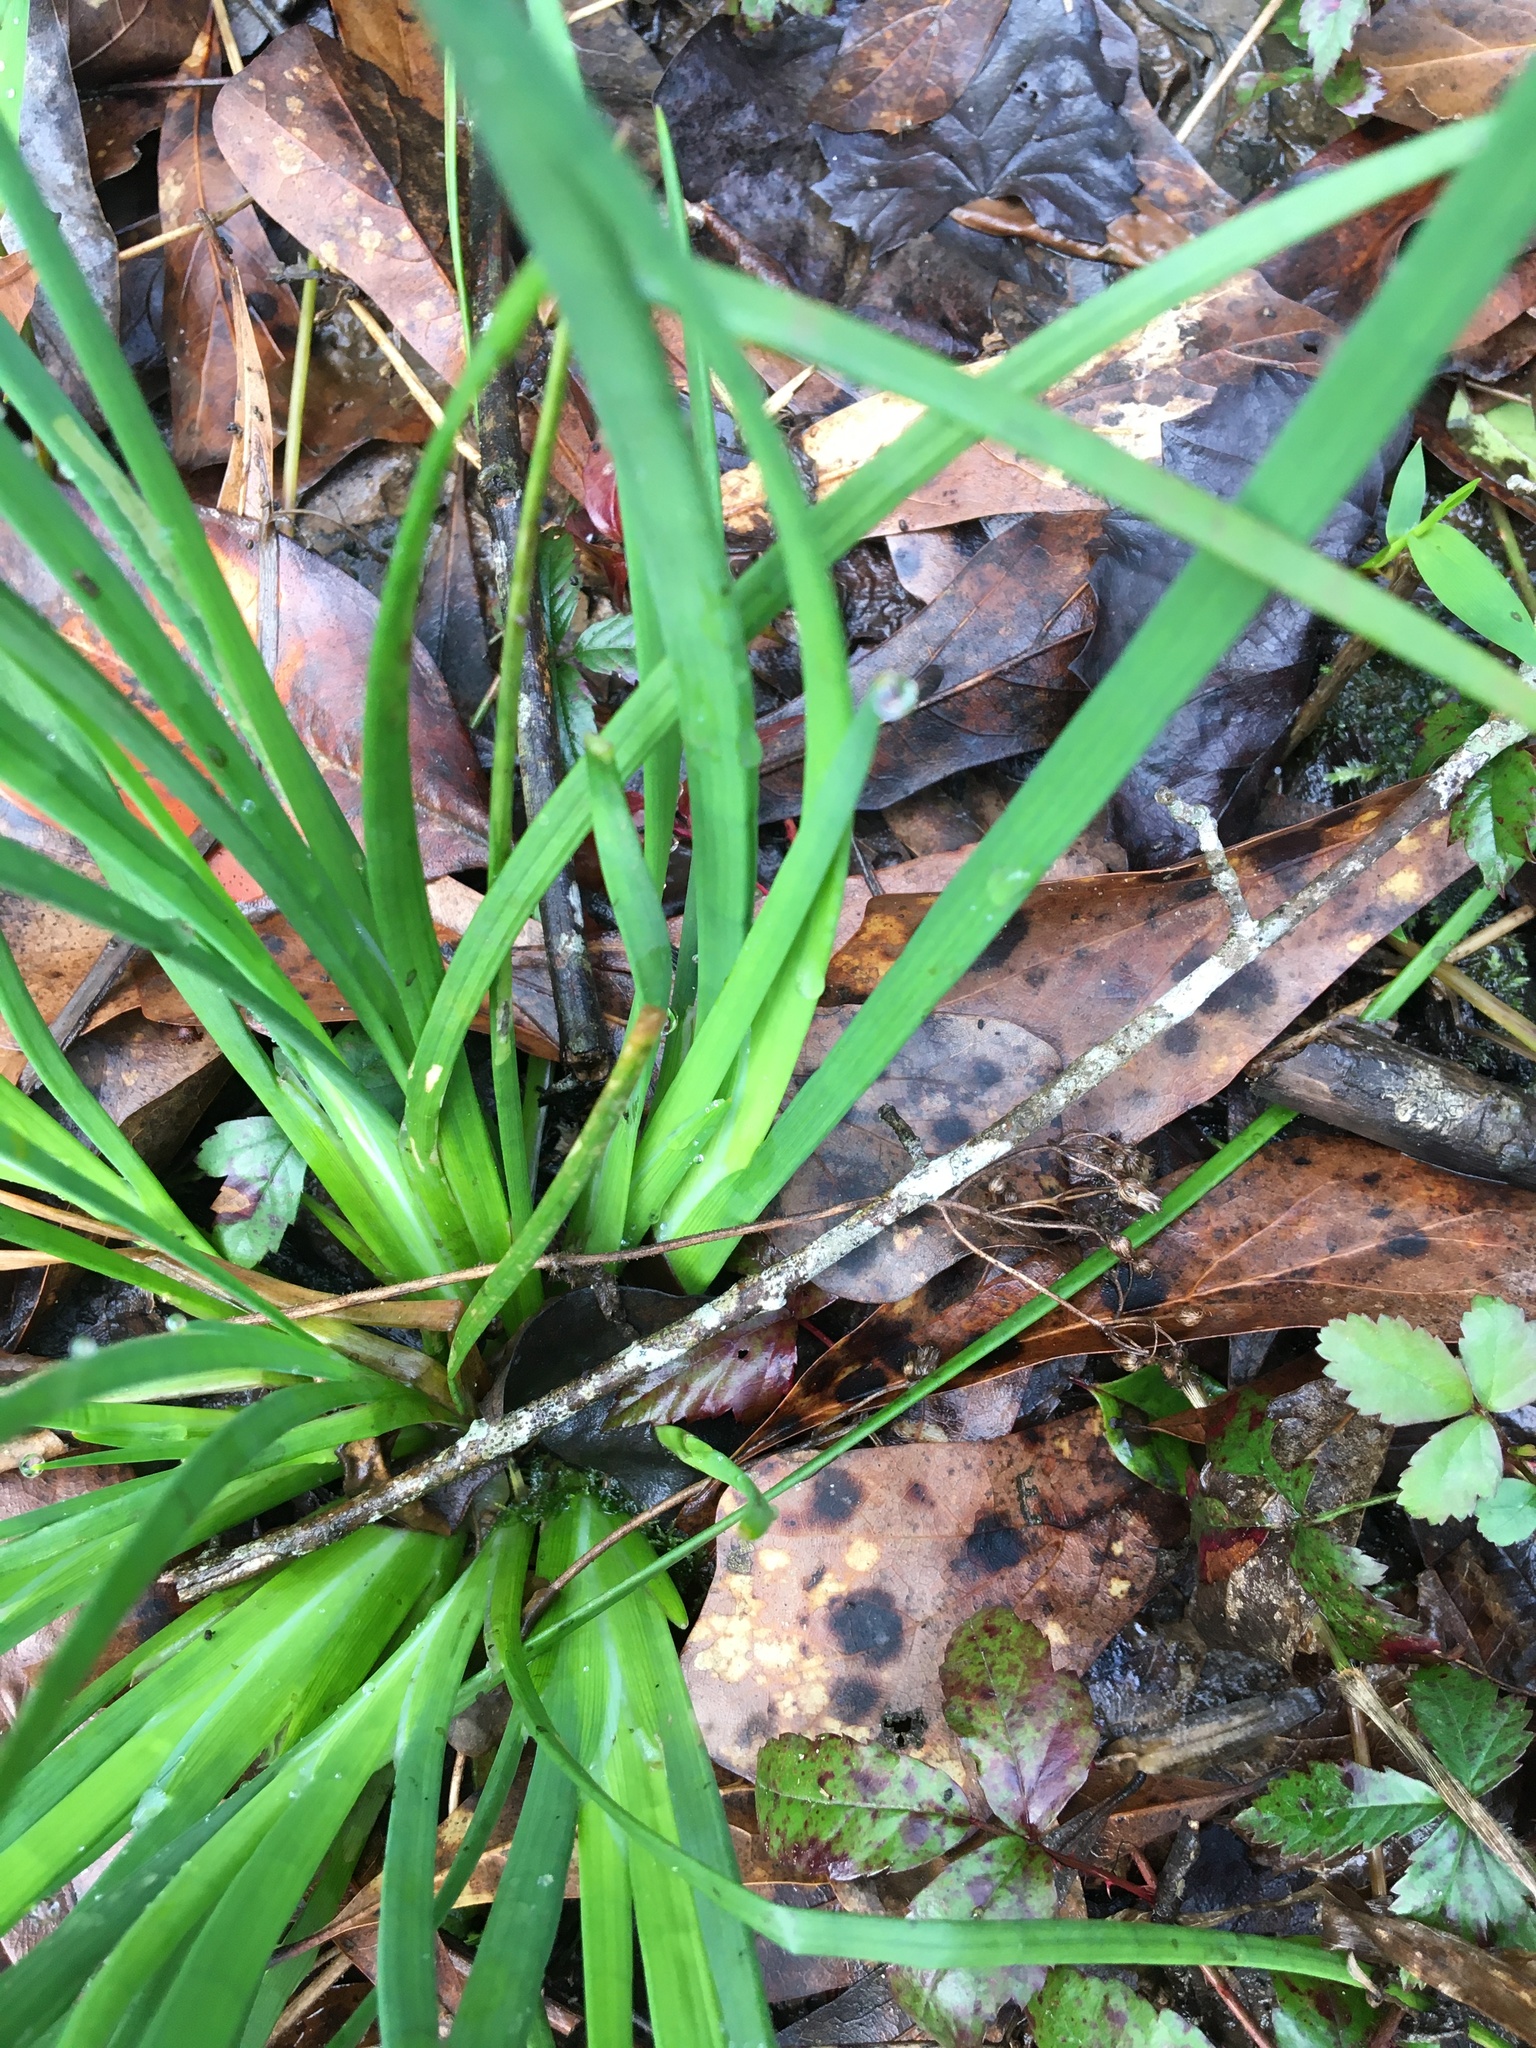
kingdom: Plantae
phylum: Tracheophyta
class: Liliopsida
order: Poales
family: Juncaceae
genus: Juncus
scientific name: Juncus validus
